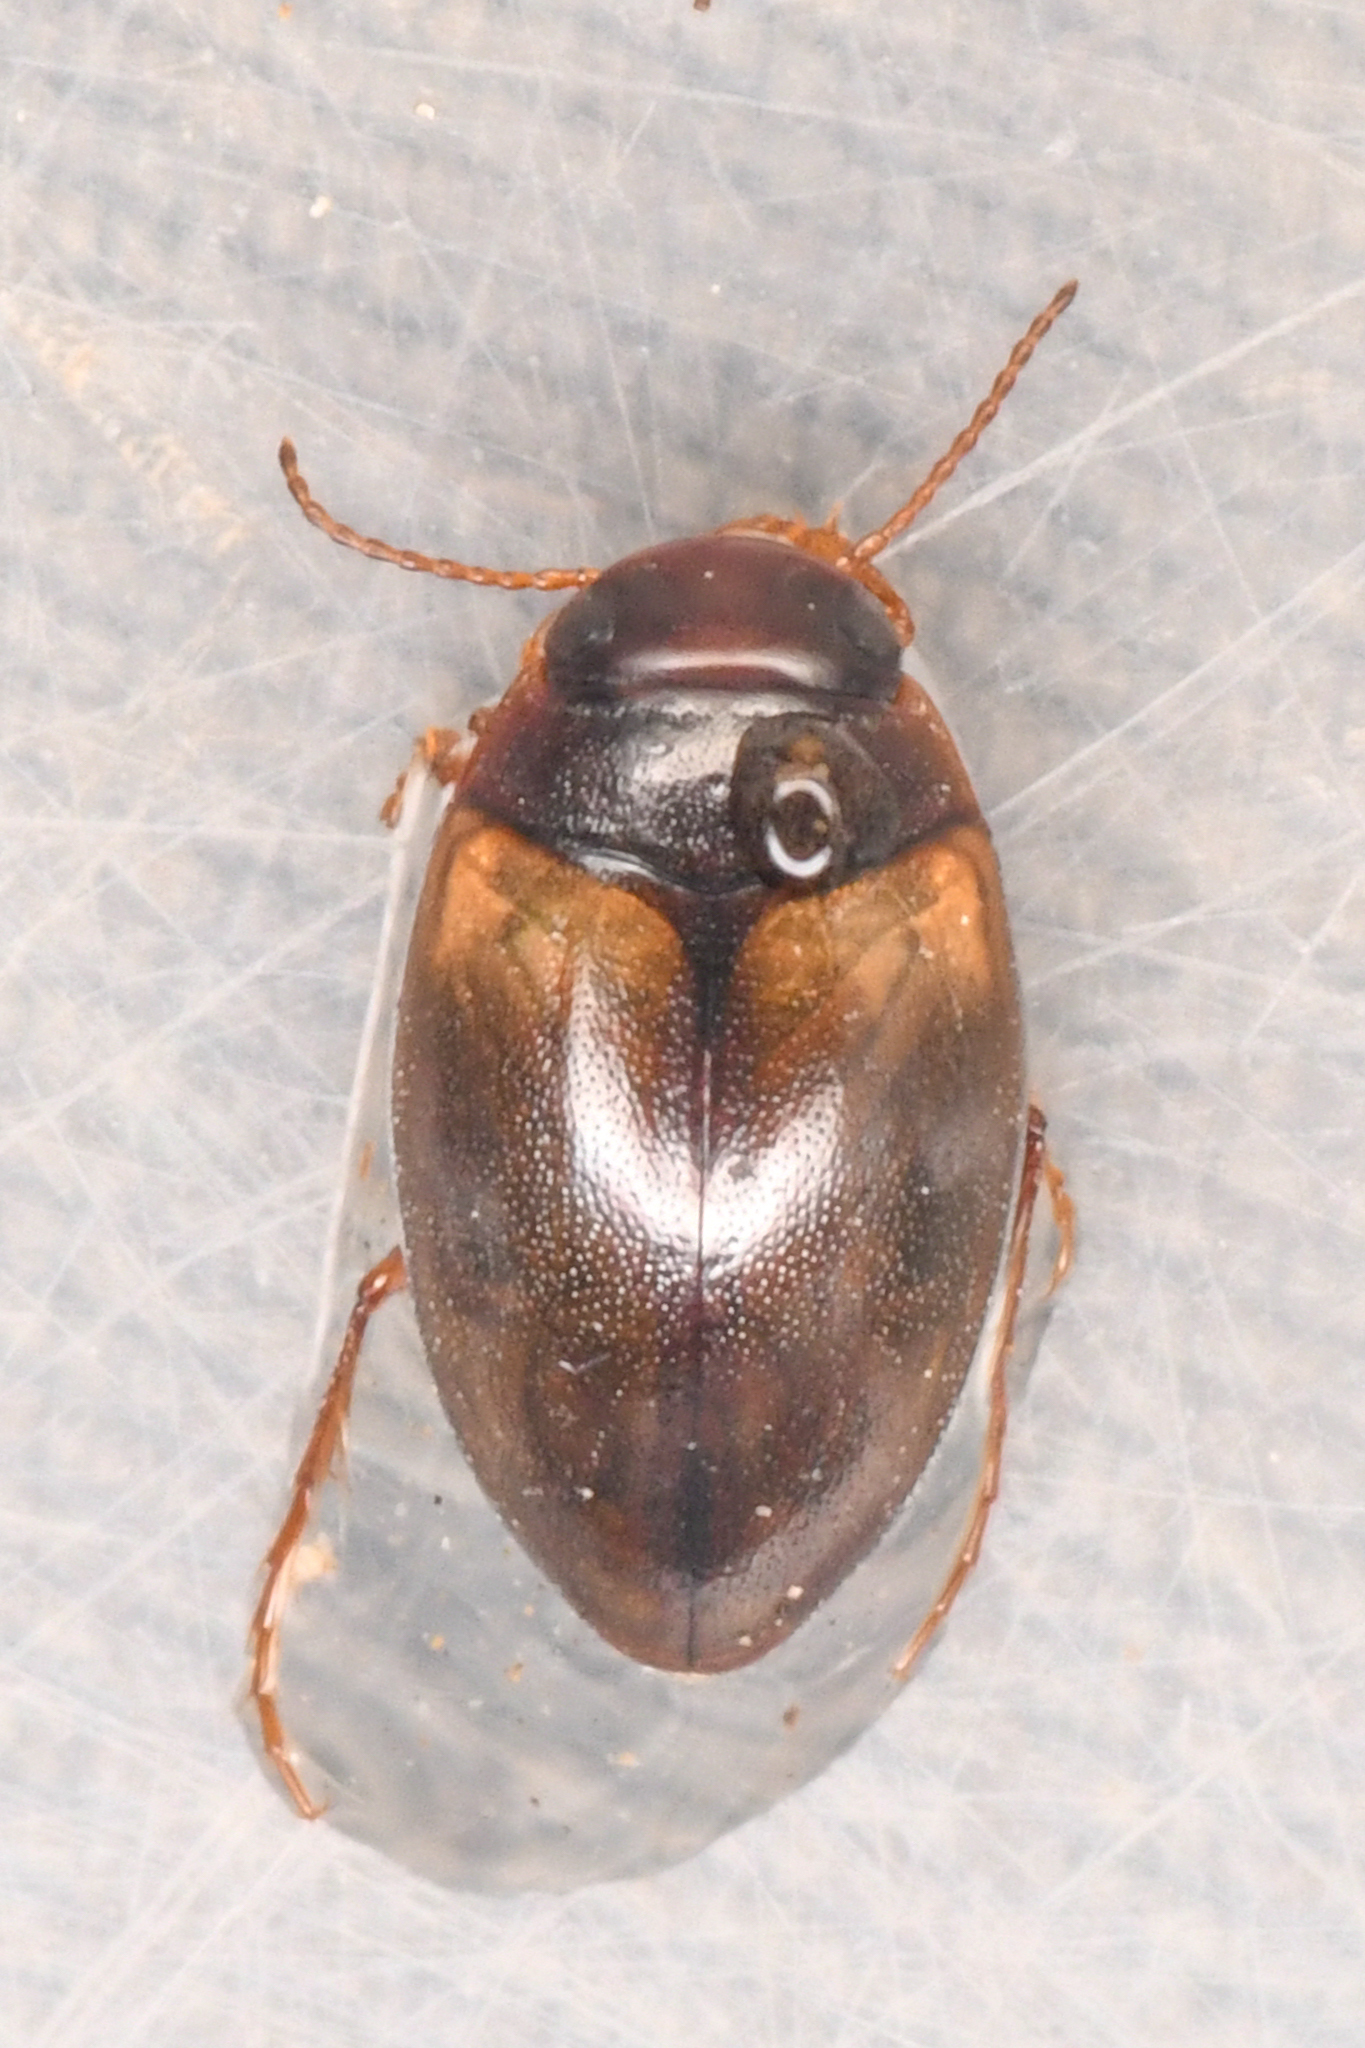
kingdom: Animalia
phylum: Arthropoda
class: Insecta
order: Coleoptera
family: Dytiscidae
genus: Sanfilippodytes
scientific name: Sanfilippodytes
